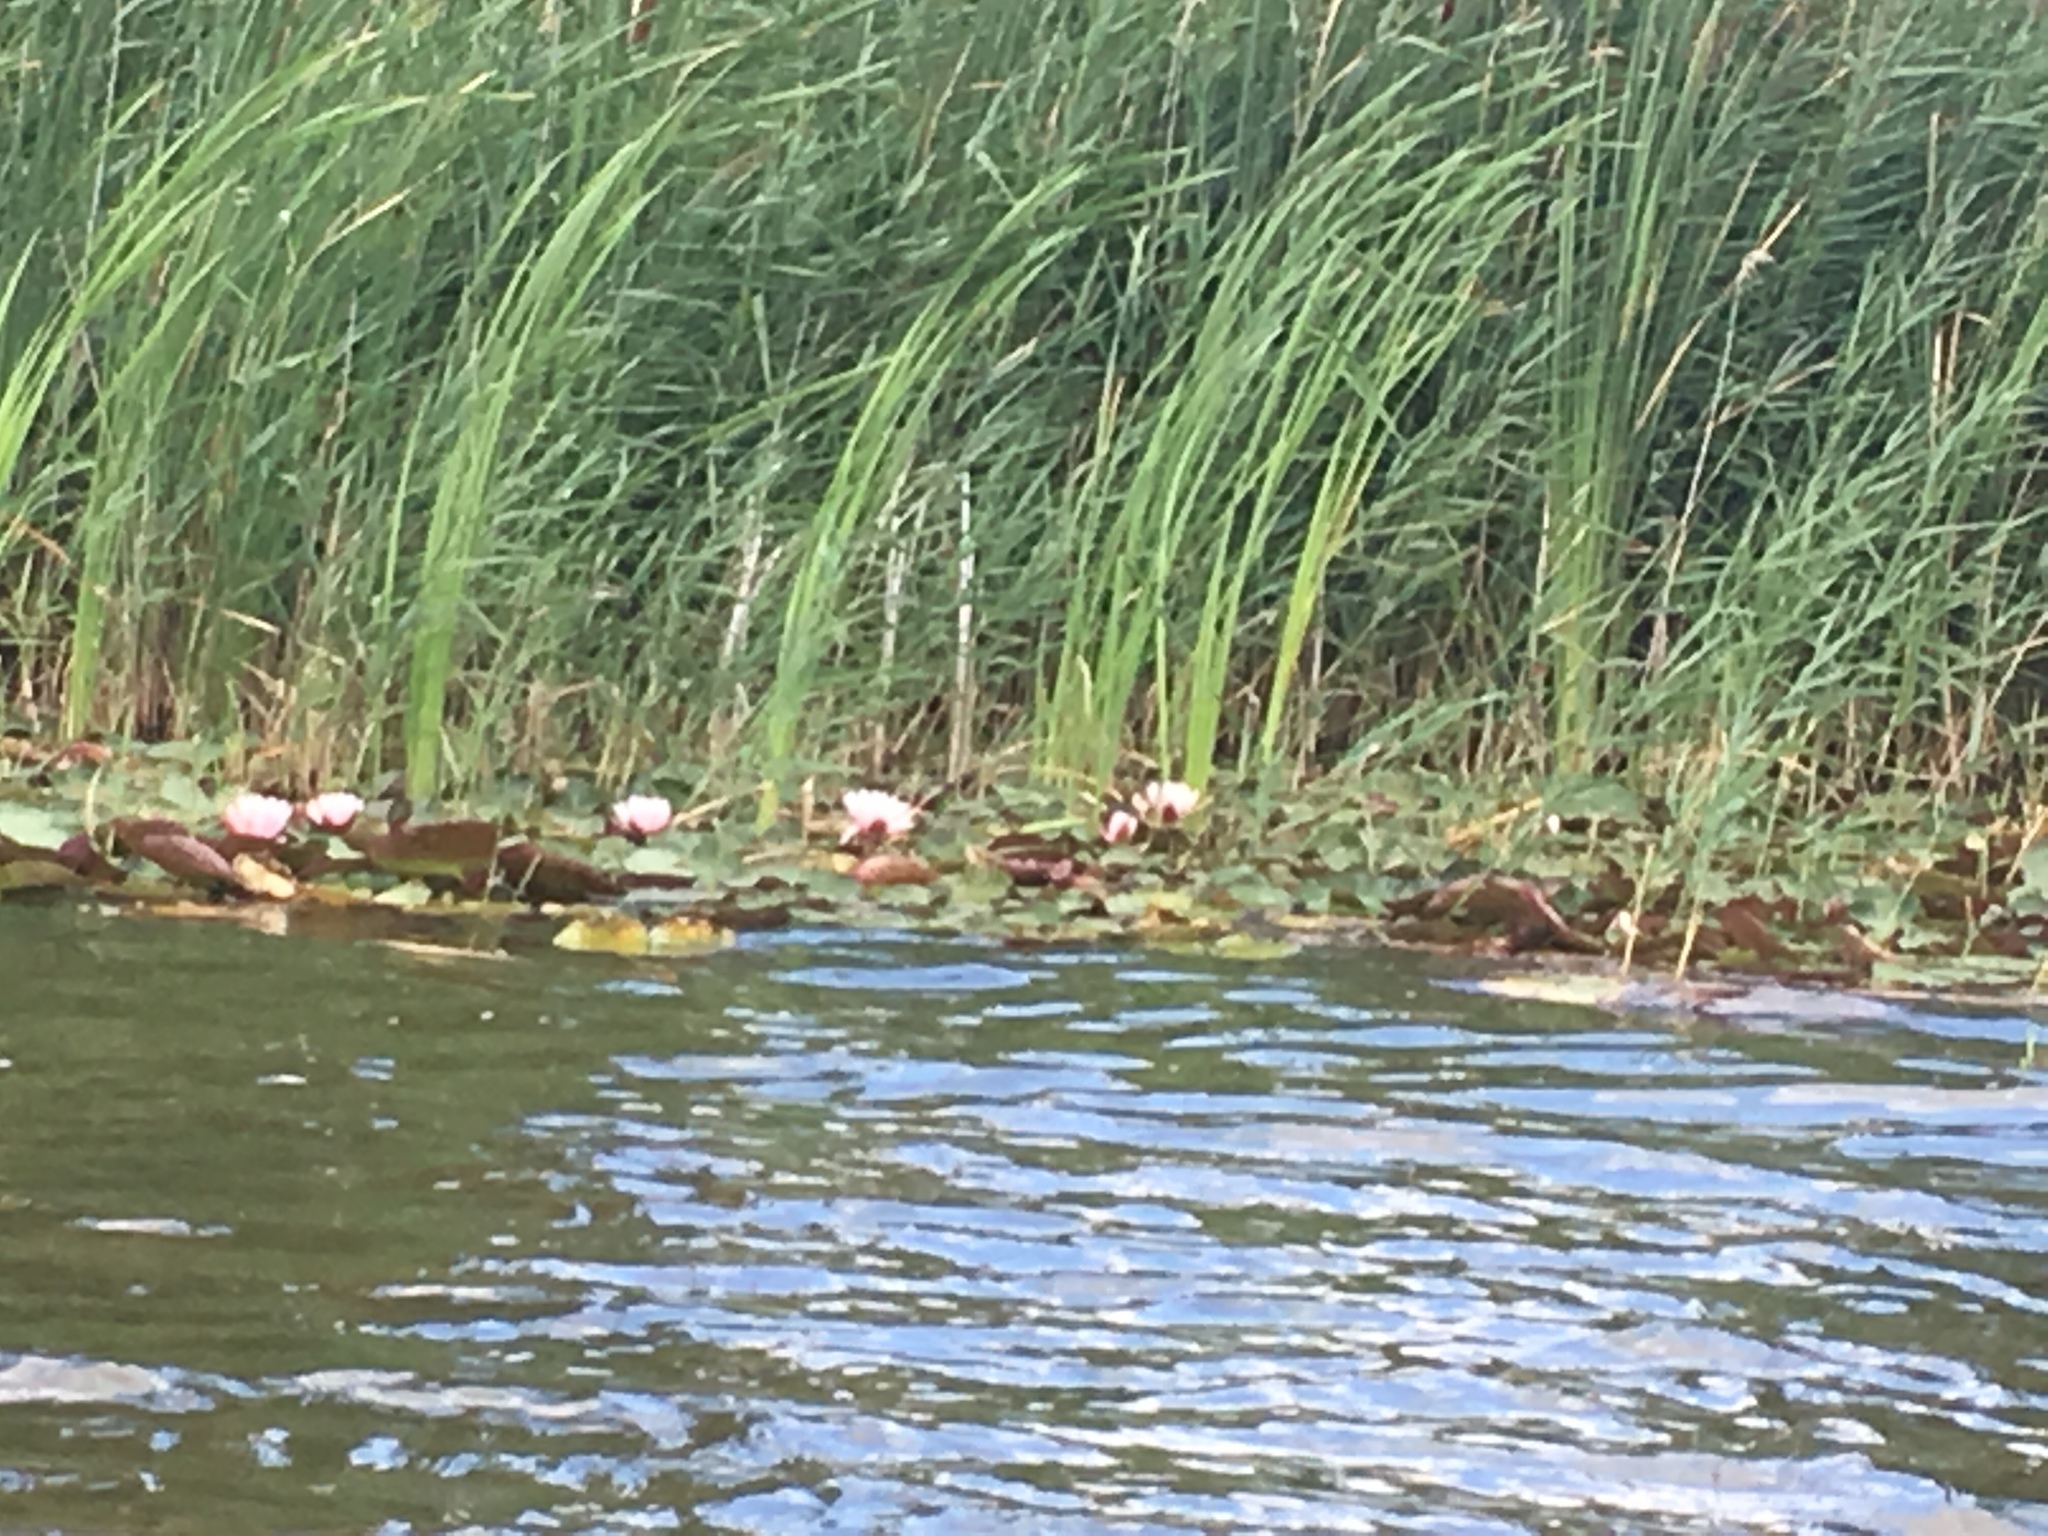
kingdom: Plantae
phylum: Tracheophyta
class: Magnoliopsida
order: Nymphaeales
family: Nymphaeaceae
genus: Nymphaea
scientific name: Nymphaea alba
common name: White water-lily
